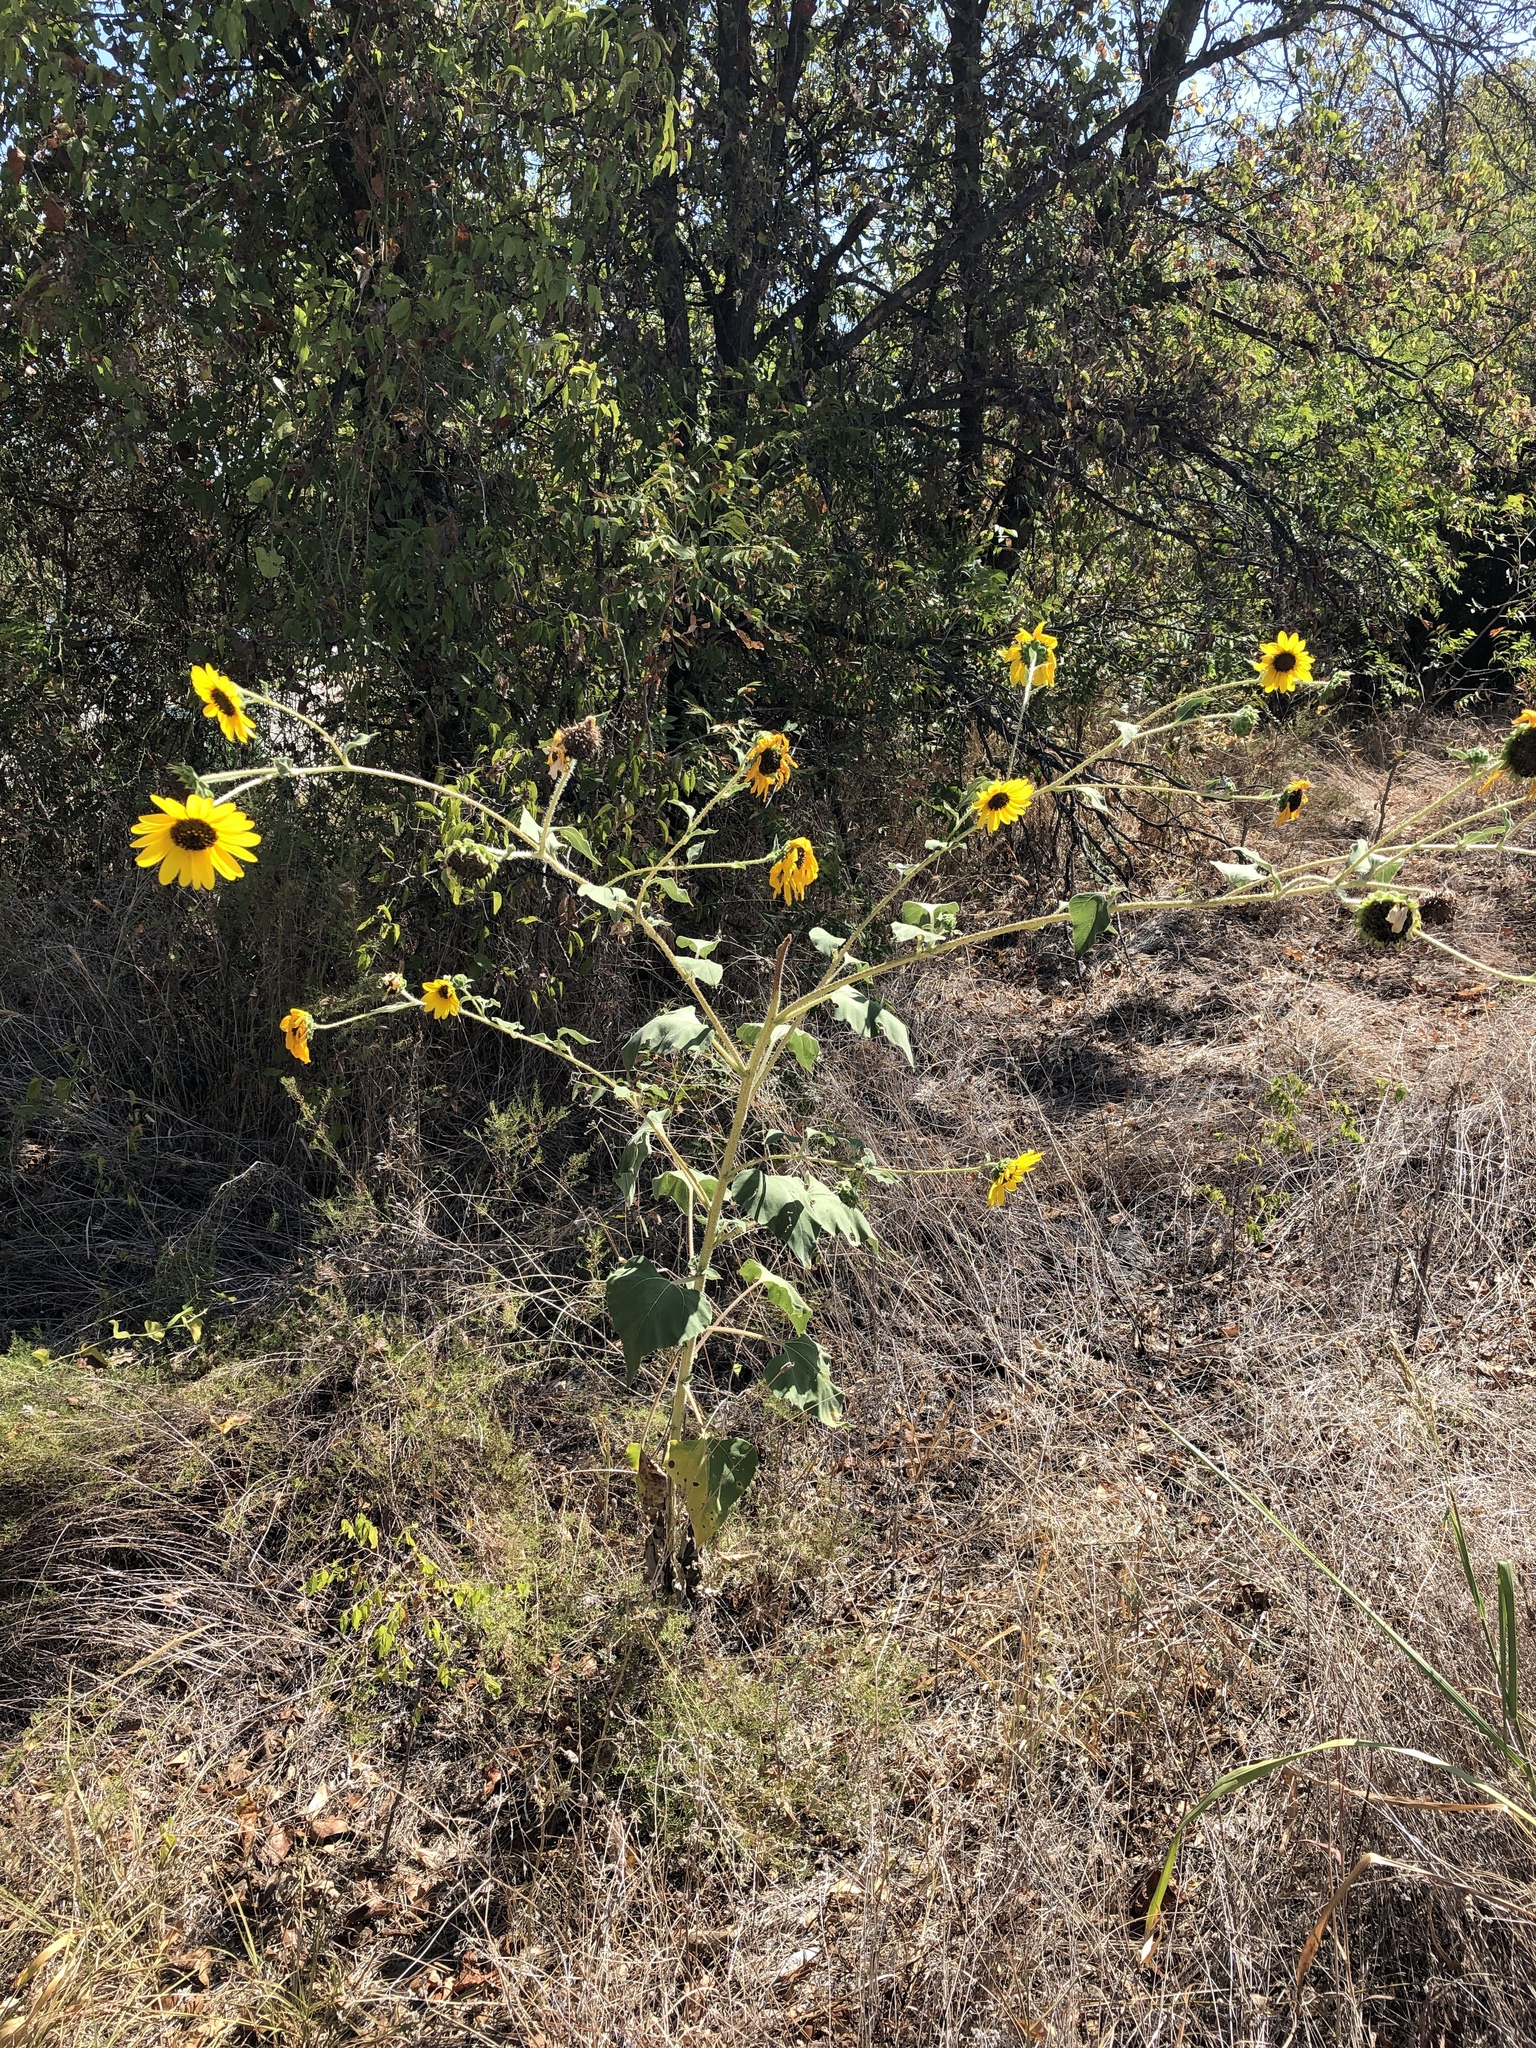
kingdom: Plantae
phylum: Tracheophyta
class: Magnoliopsida
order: Asterales
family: Asteraceae
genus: Helianthus
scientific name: Helianthus annuus
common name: Sunflower
